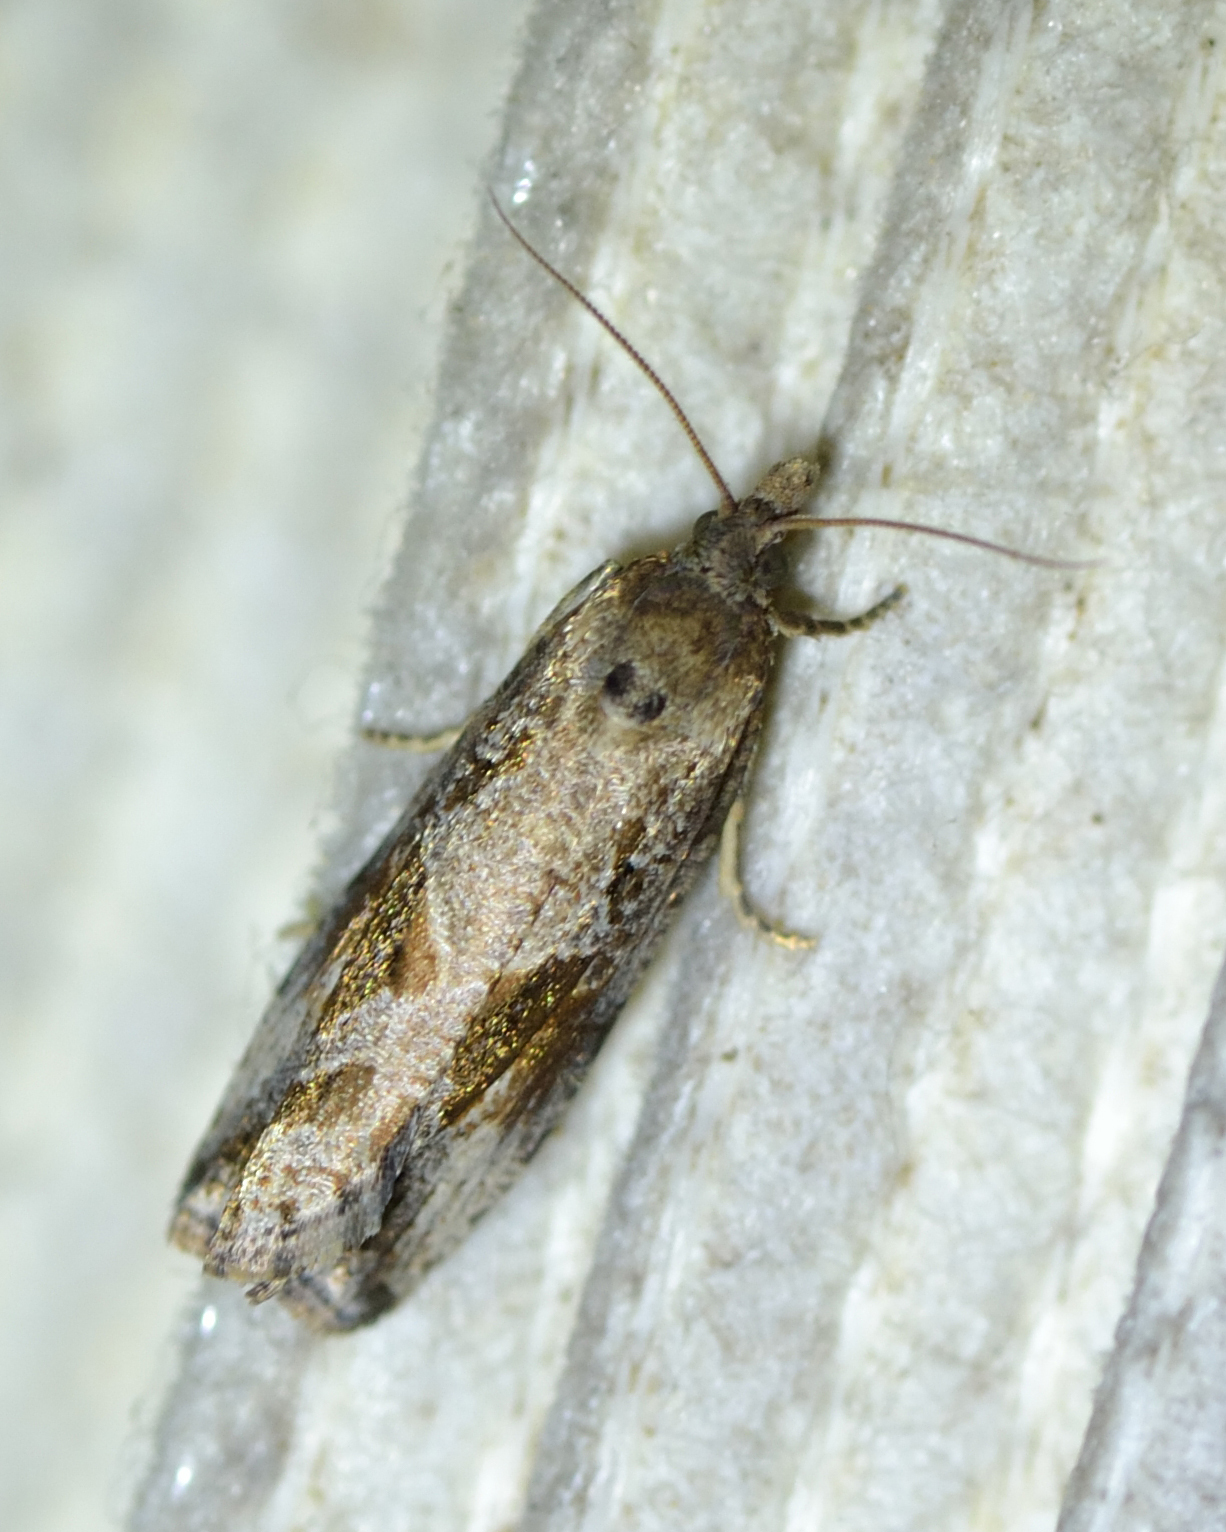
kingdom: Animalia
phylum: Arthropoda
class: Insecta
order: Lepidoptera
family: Tortricidae
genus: Endothenia
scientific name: Endothenia quadrimaculana
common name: Tortricid moth
